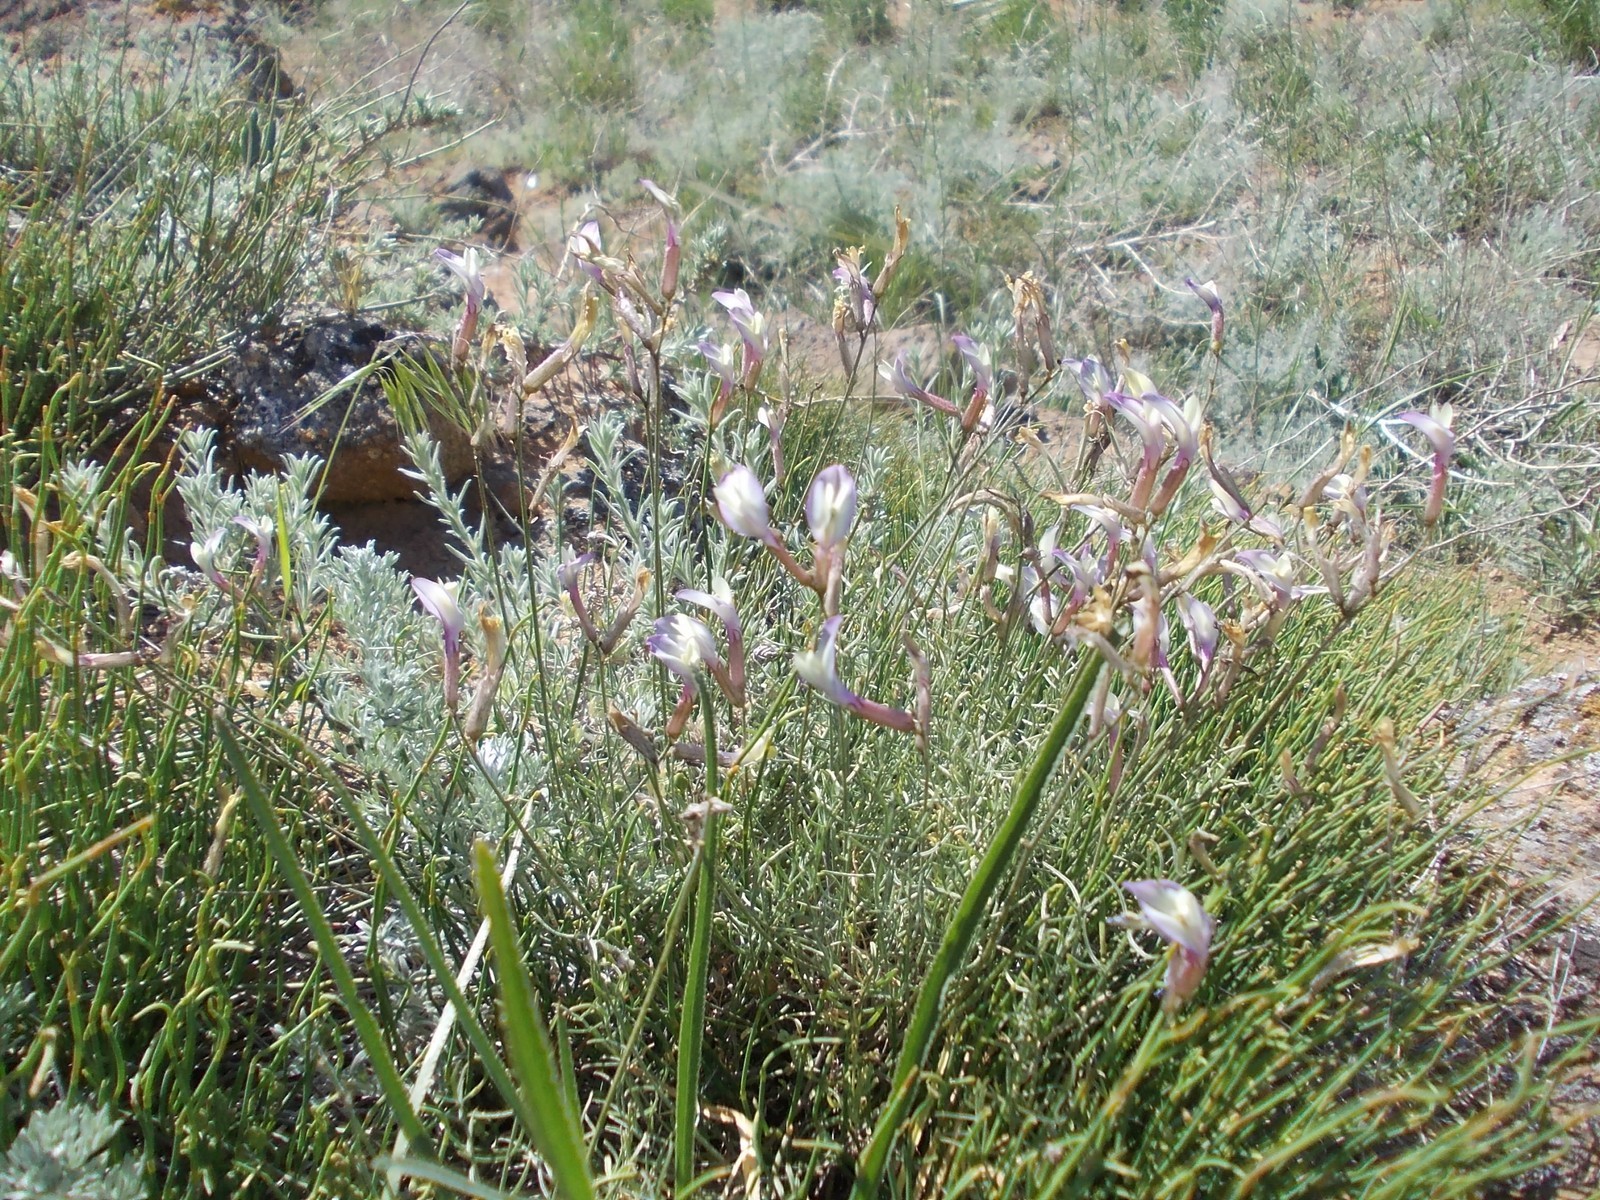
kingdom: Plantae
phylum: Tracheophyta
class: Magnoliopsida
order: Fabales
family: Fabaceae
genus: Astragalus
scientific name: Astragalus pseudotataricus
